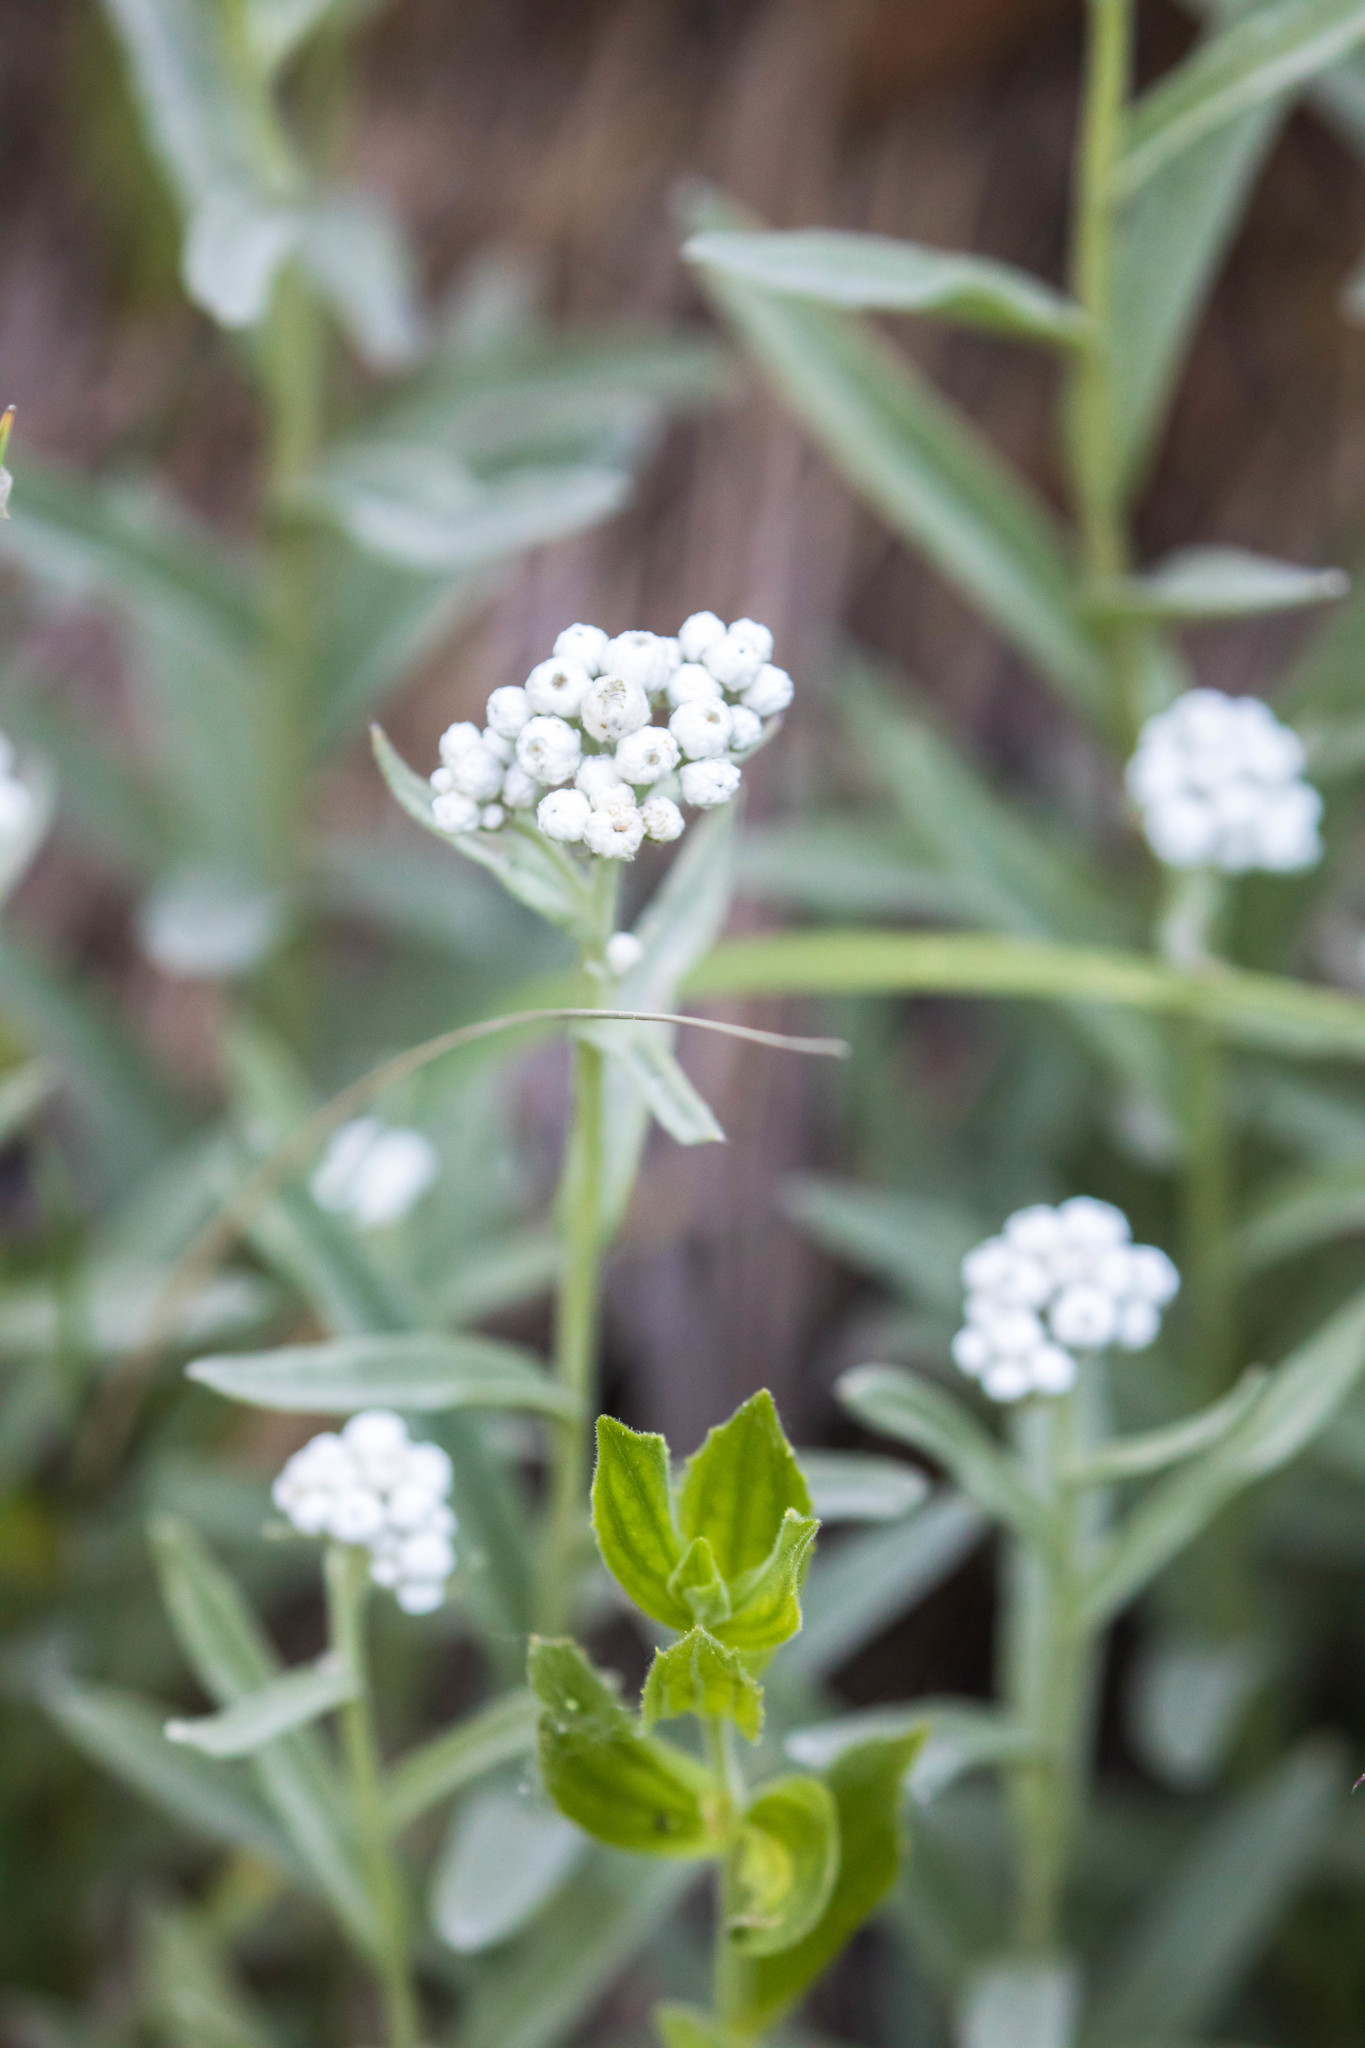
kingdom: Plantae
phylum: Tracheophyta
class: Magnoliopsida
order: Asterales
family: Asteraceae
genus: Anaphalis
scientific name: Anaphalis margaritacea
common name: Pearly everlasting
